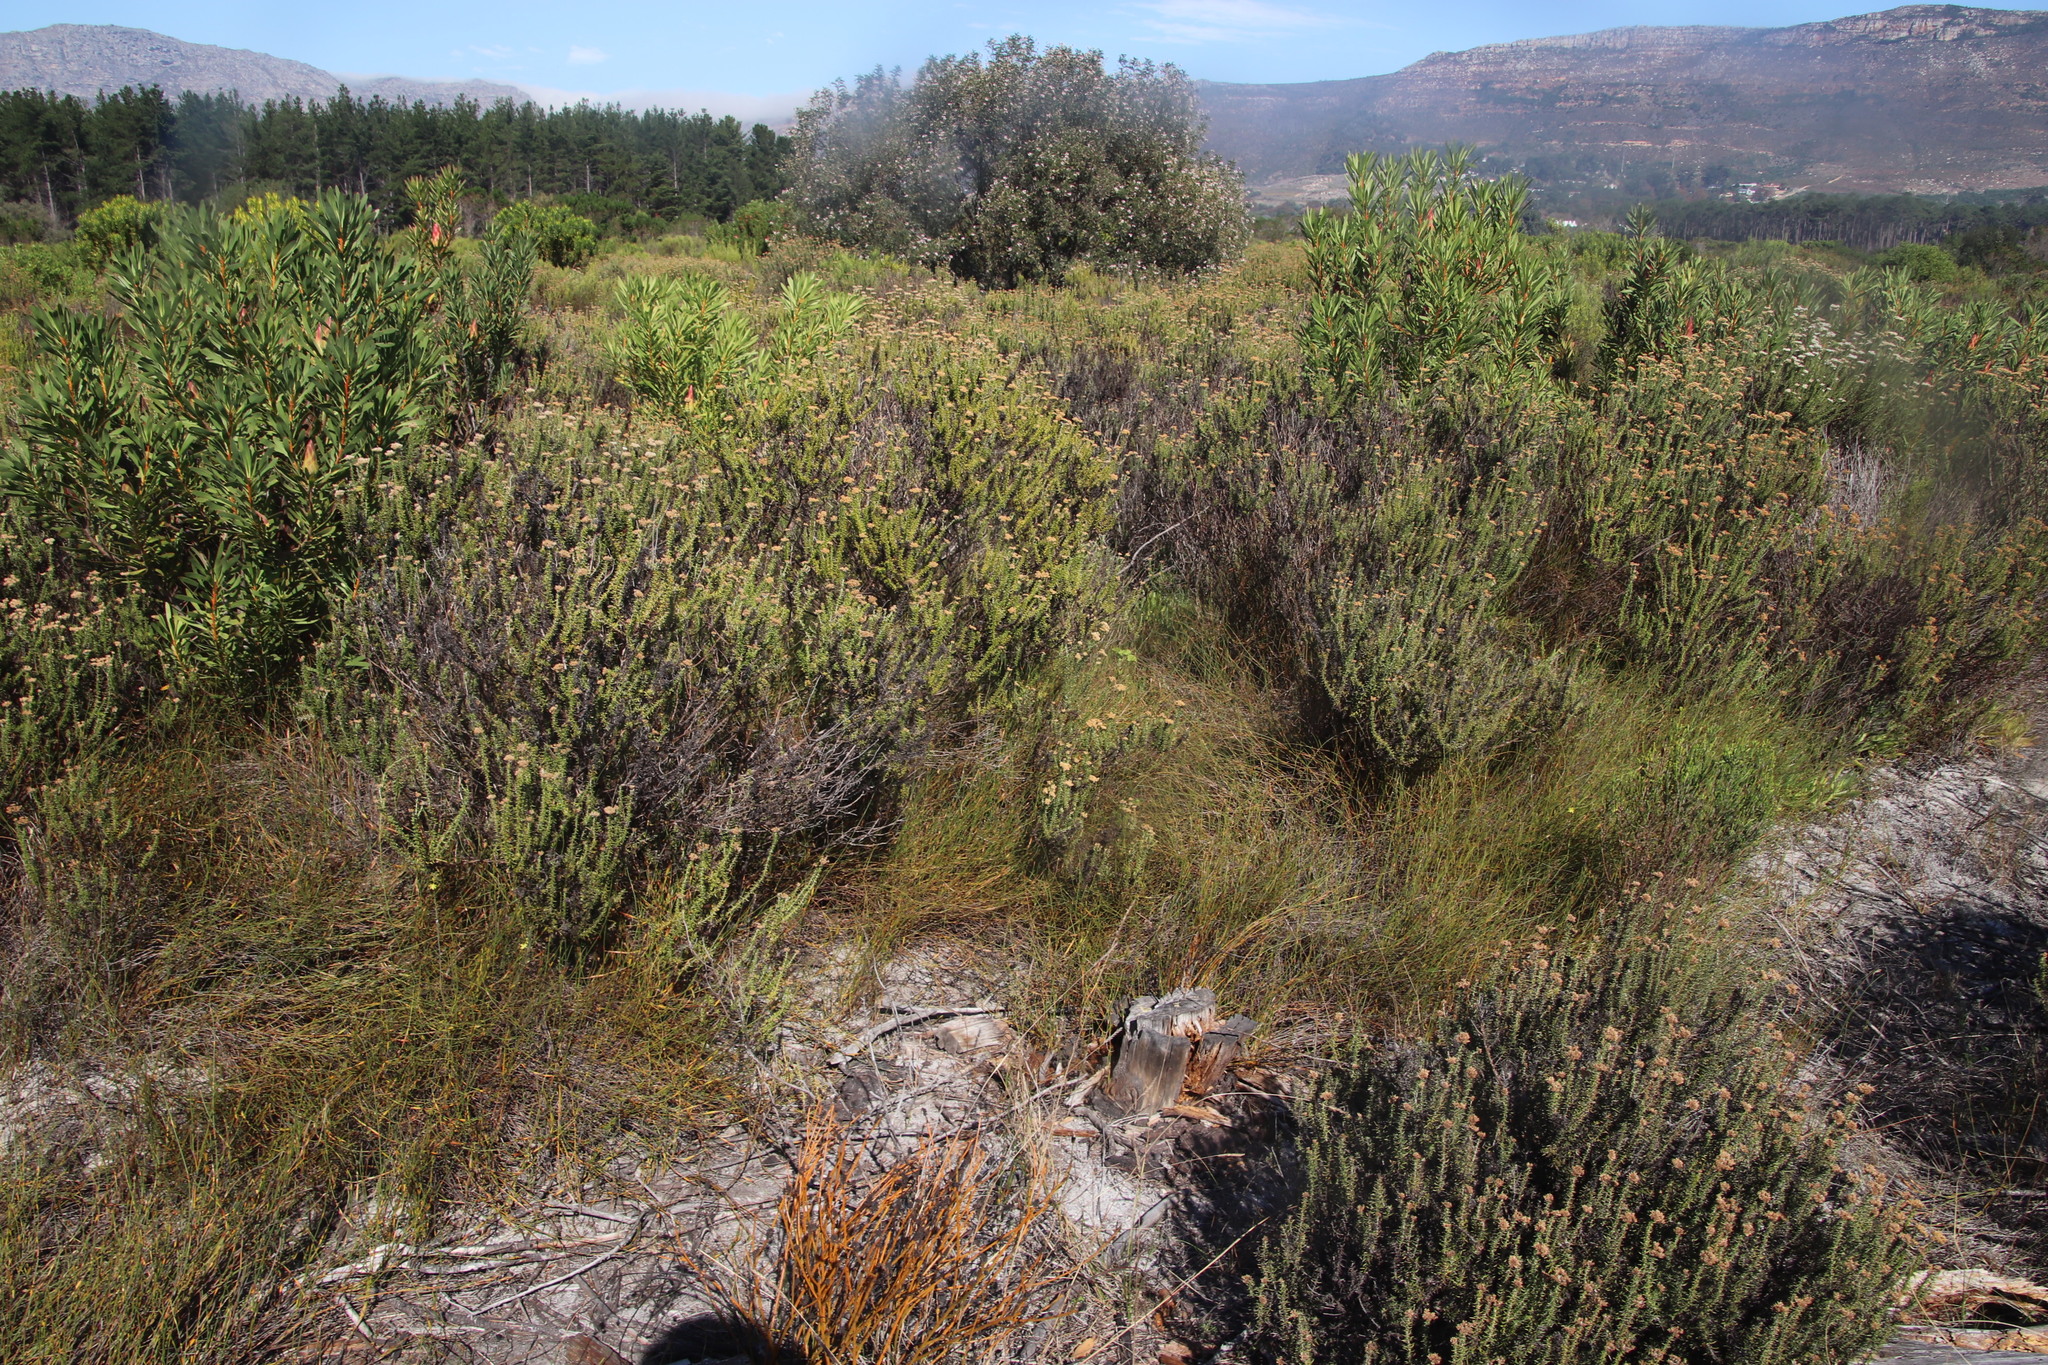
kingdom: Plantae
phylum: Tracheophyta
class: Magnoliopsida
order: Asterales
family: Asteraceae
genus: Metalasia
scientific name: Metalasia densa
